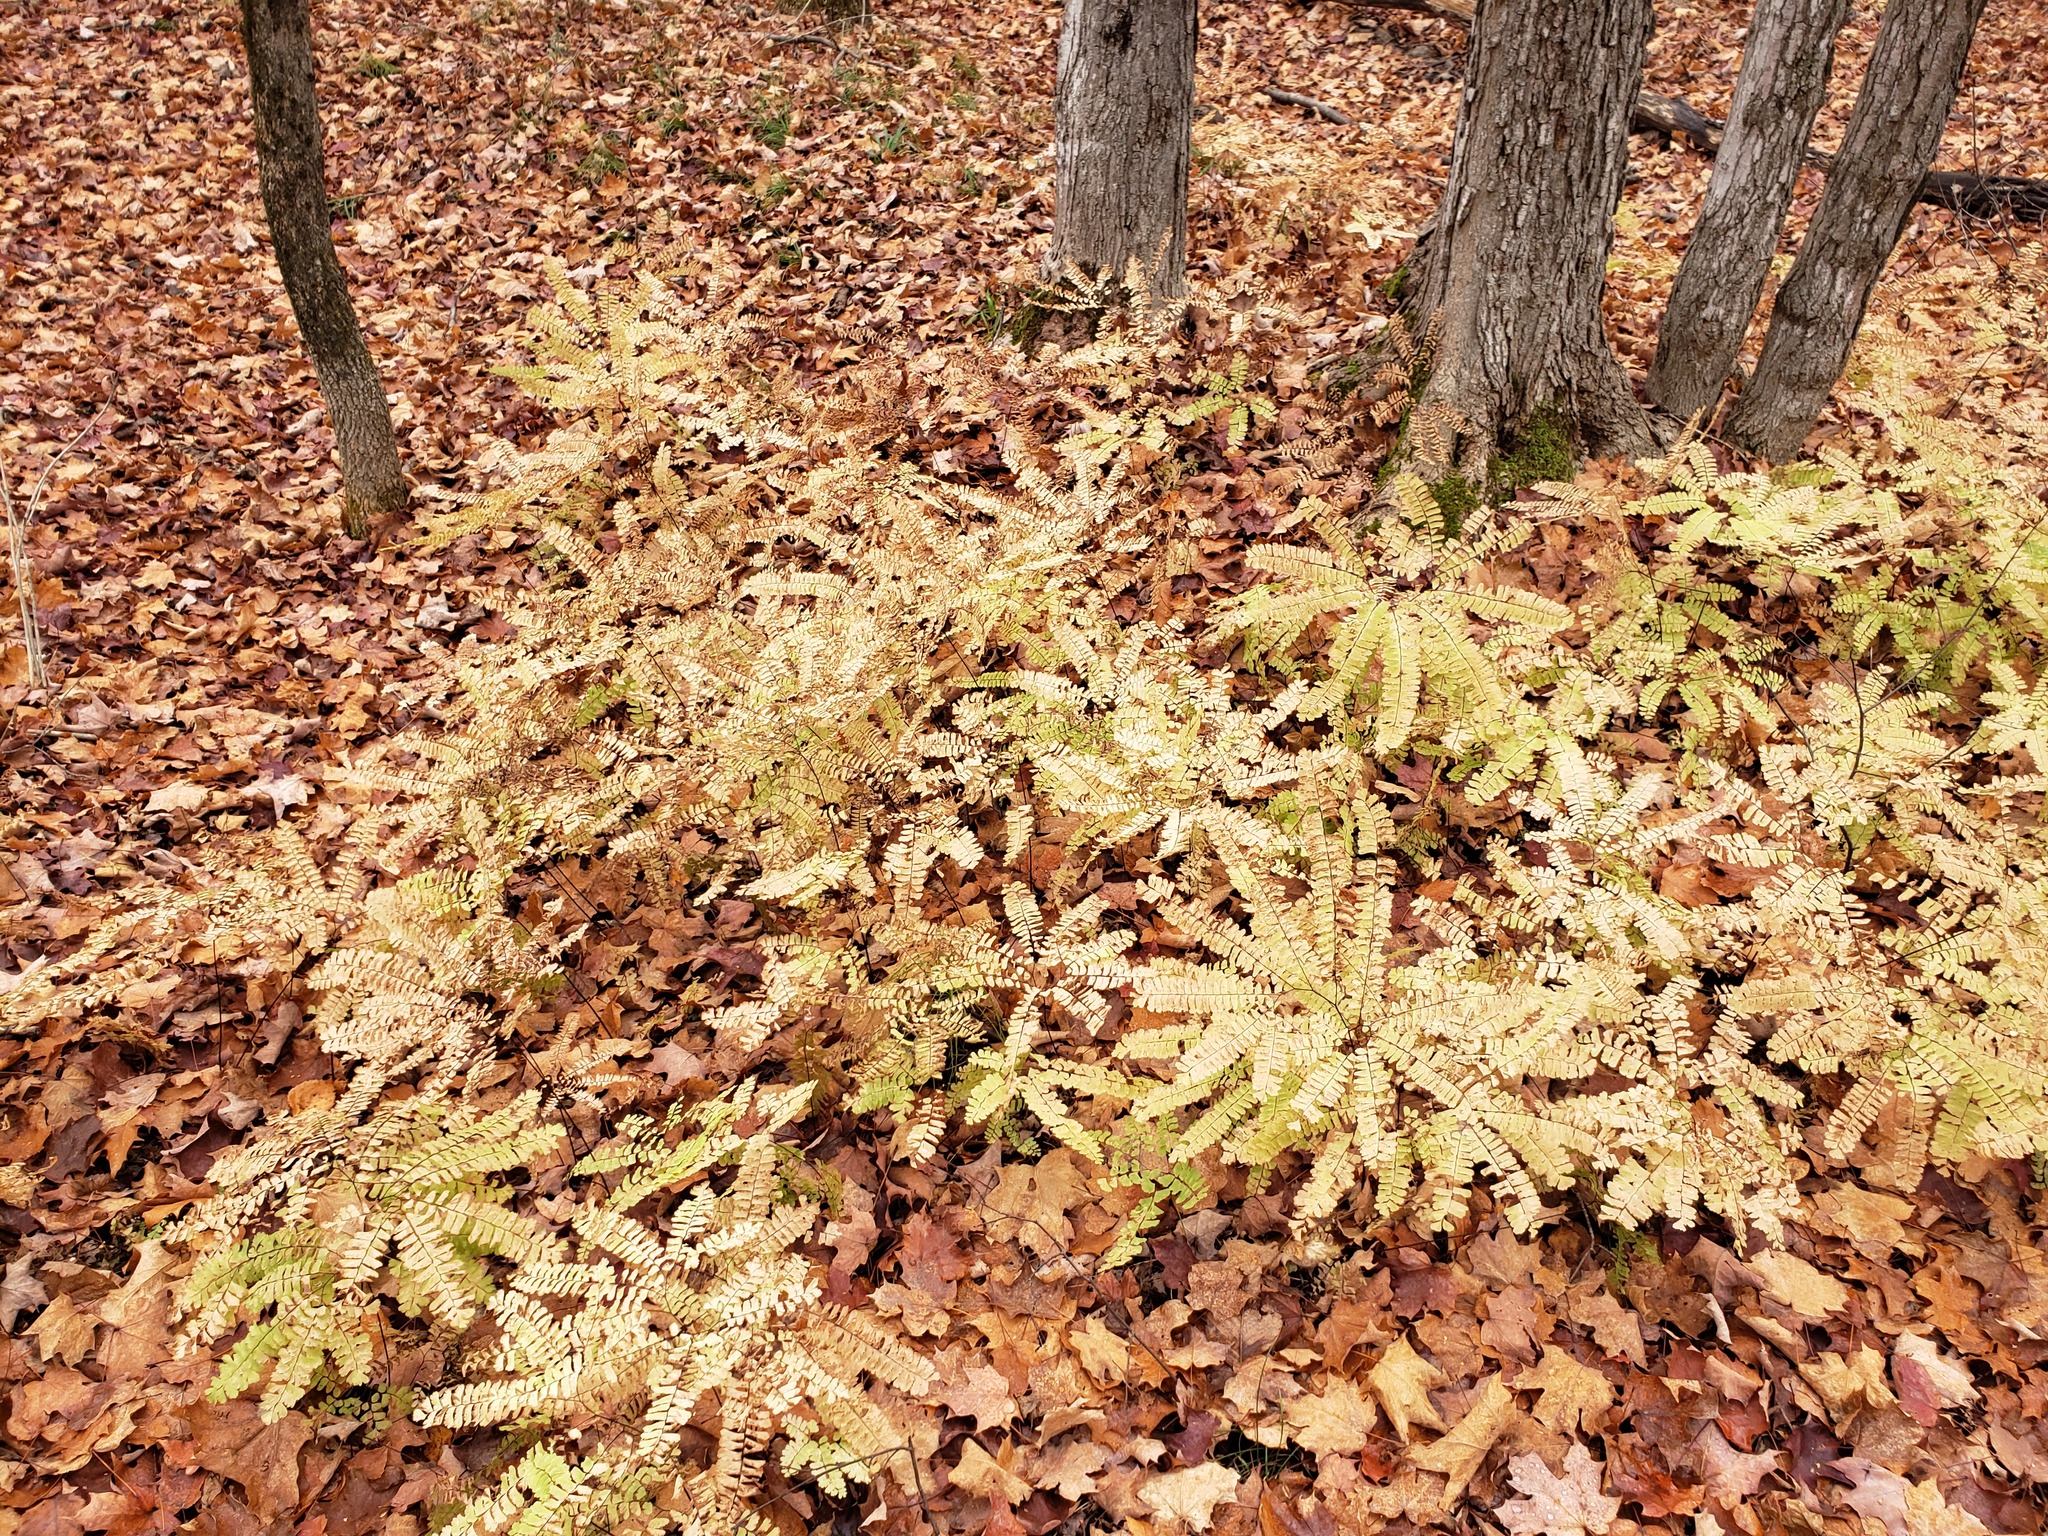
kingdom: Plantae
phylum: Tracheophyta
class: Polypodiopsida
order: Polypodiales
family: Pteridaceae
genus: Adiantum
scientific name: Adiantum pedatum
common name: Five-finger fern
